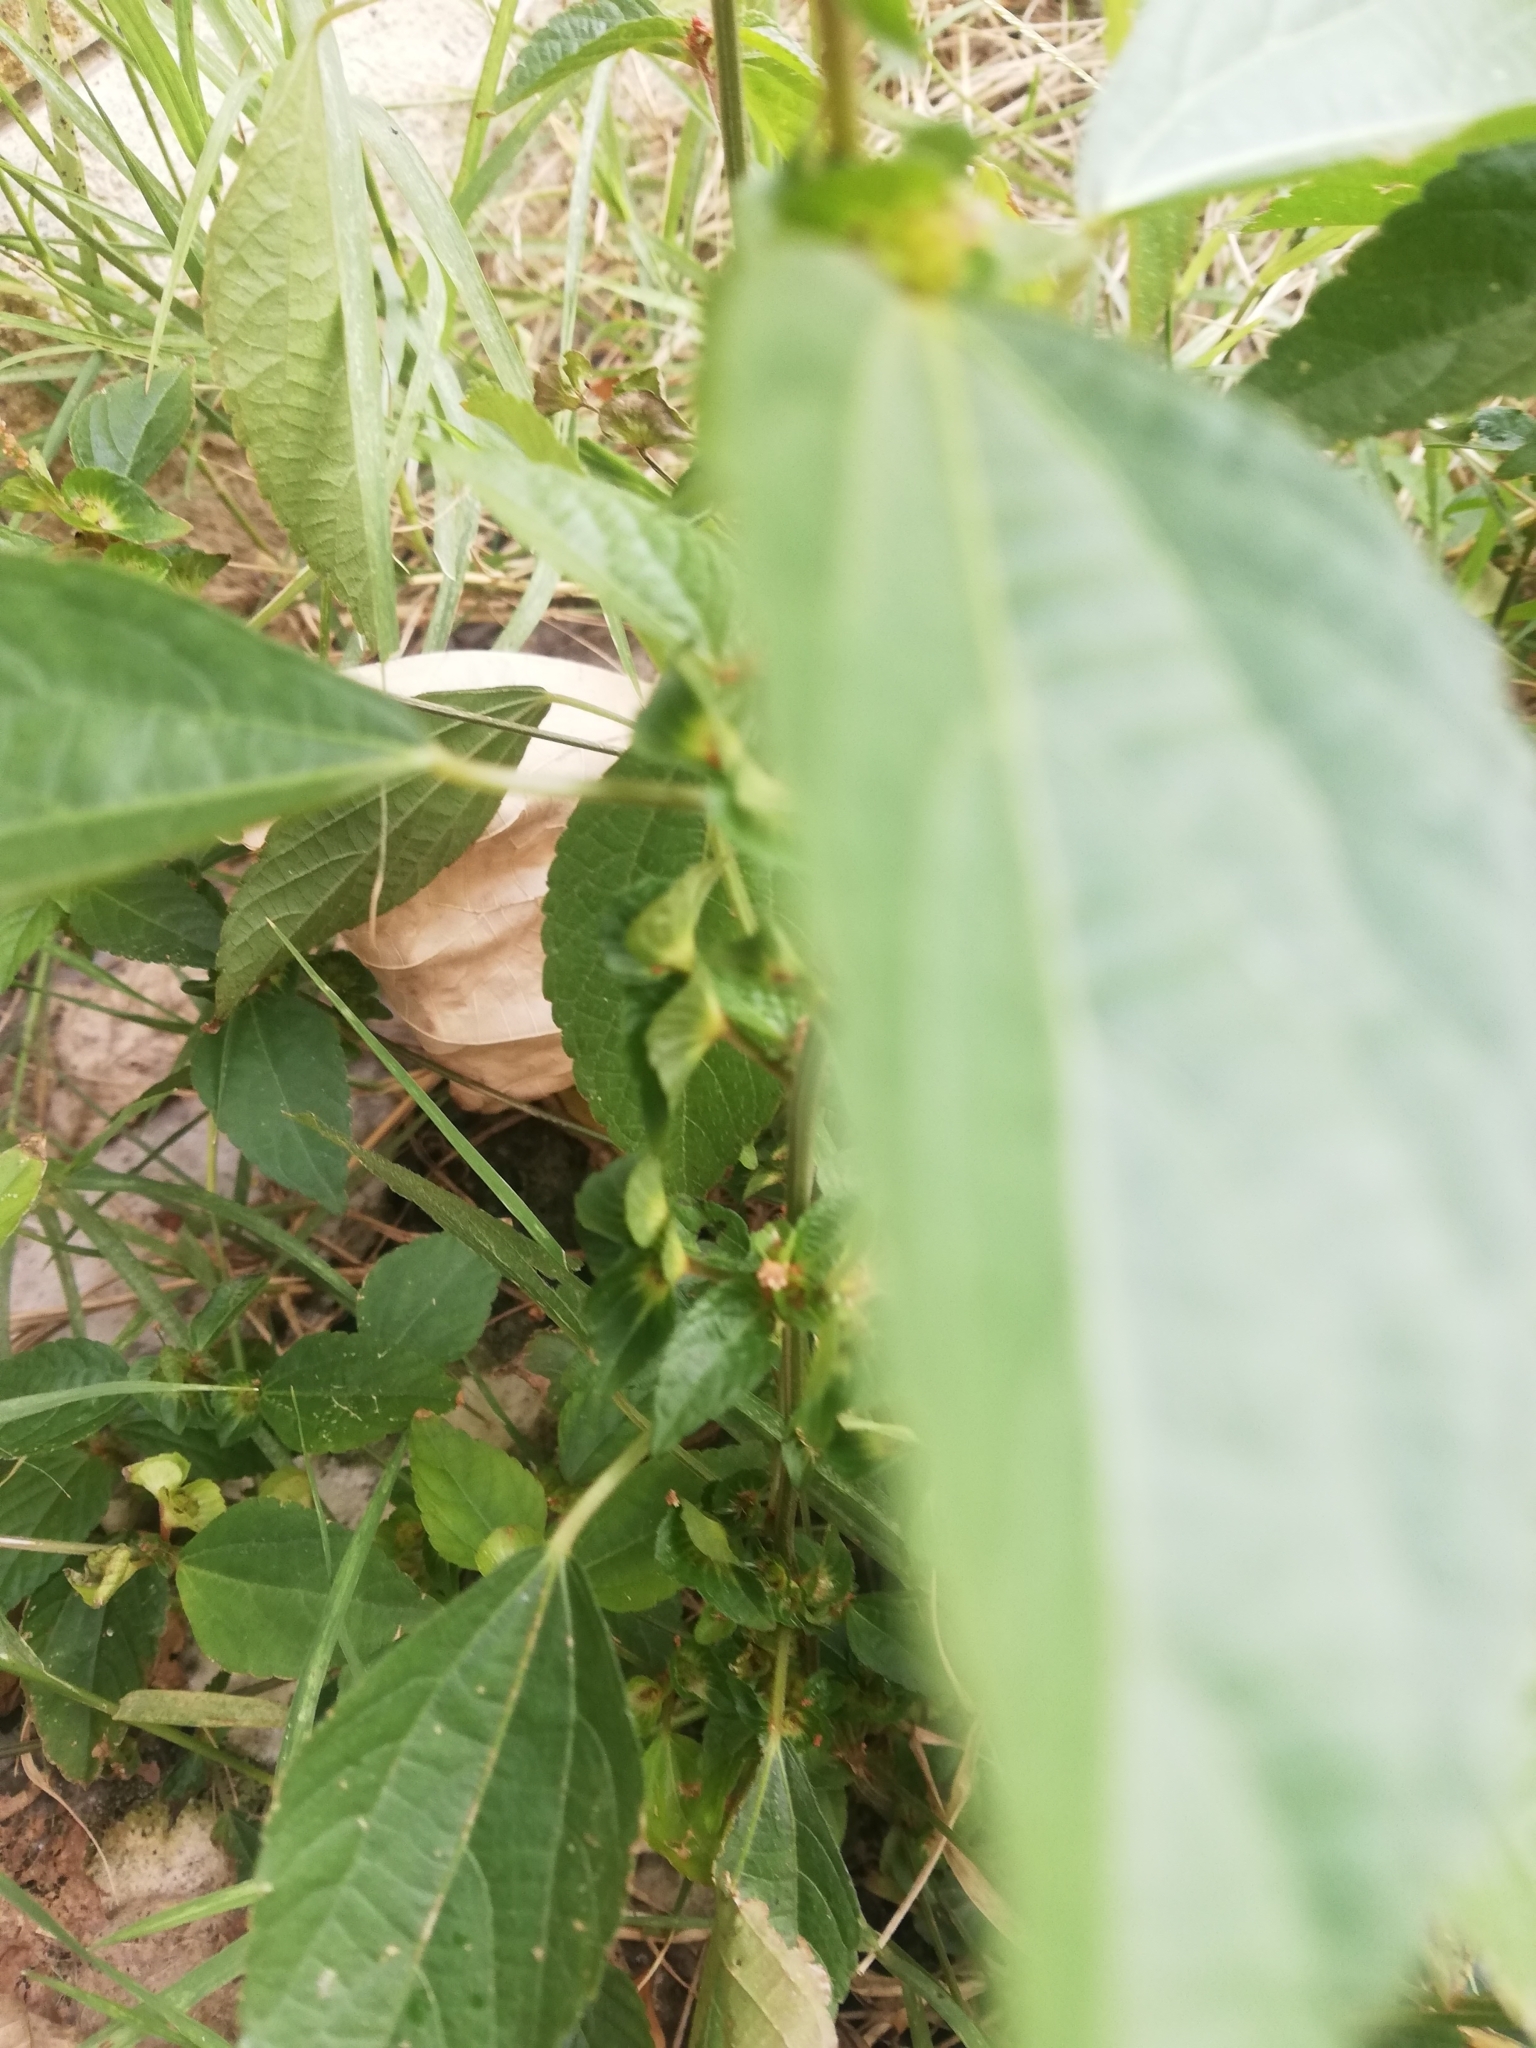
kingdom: Plantae
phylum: Tracheophyta
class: Magnoliopsida
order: Malpighiales
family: Euphorbiaceae
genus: Acalypha
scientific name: Acalypha australis
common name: Asian copperleaf
